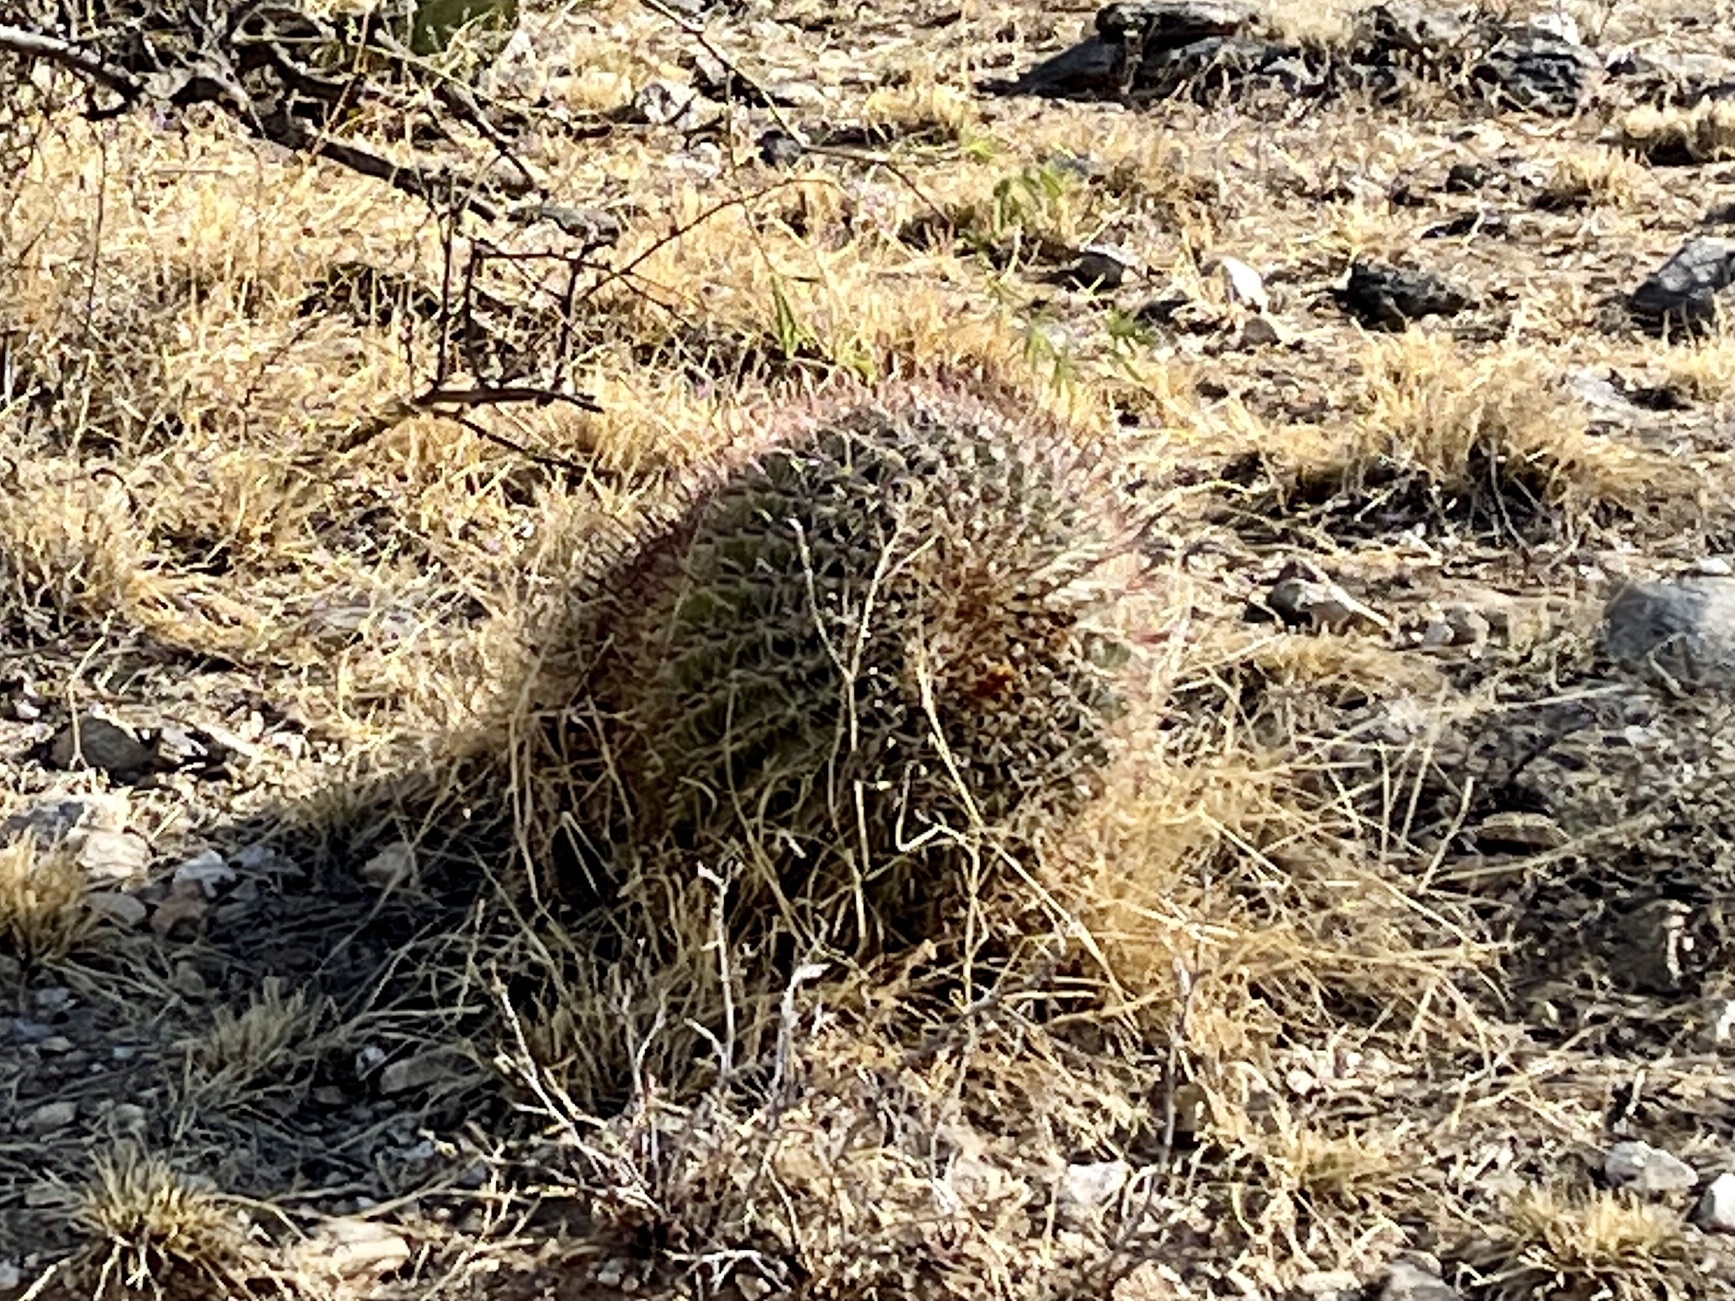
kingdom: Plantae
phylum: Tracheophyta
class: Magnoliopsida
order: Caryophyllales
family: Cactaceae
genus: Ferocactus
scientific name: Ferocactus wislizeni
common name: Candy barrel cactus
